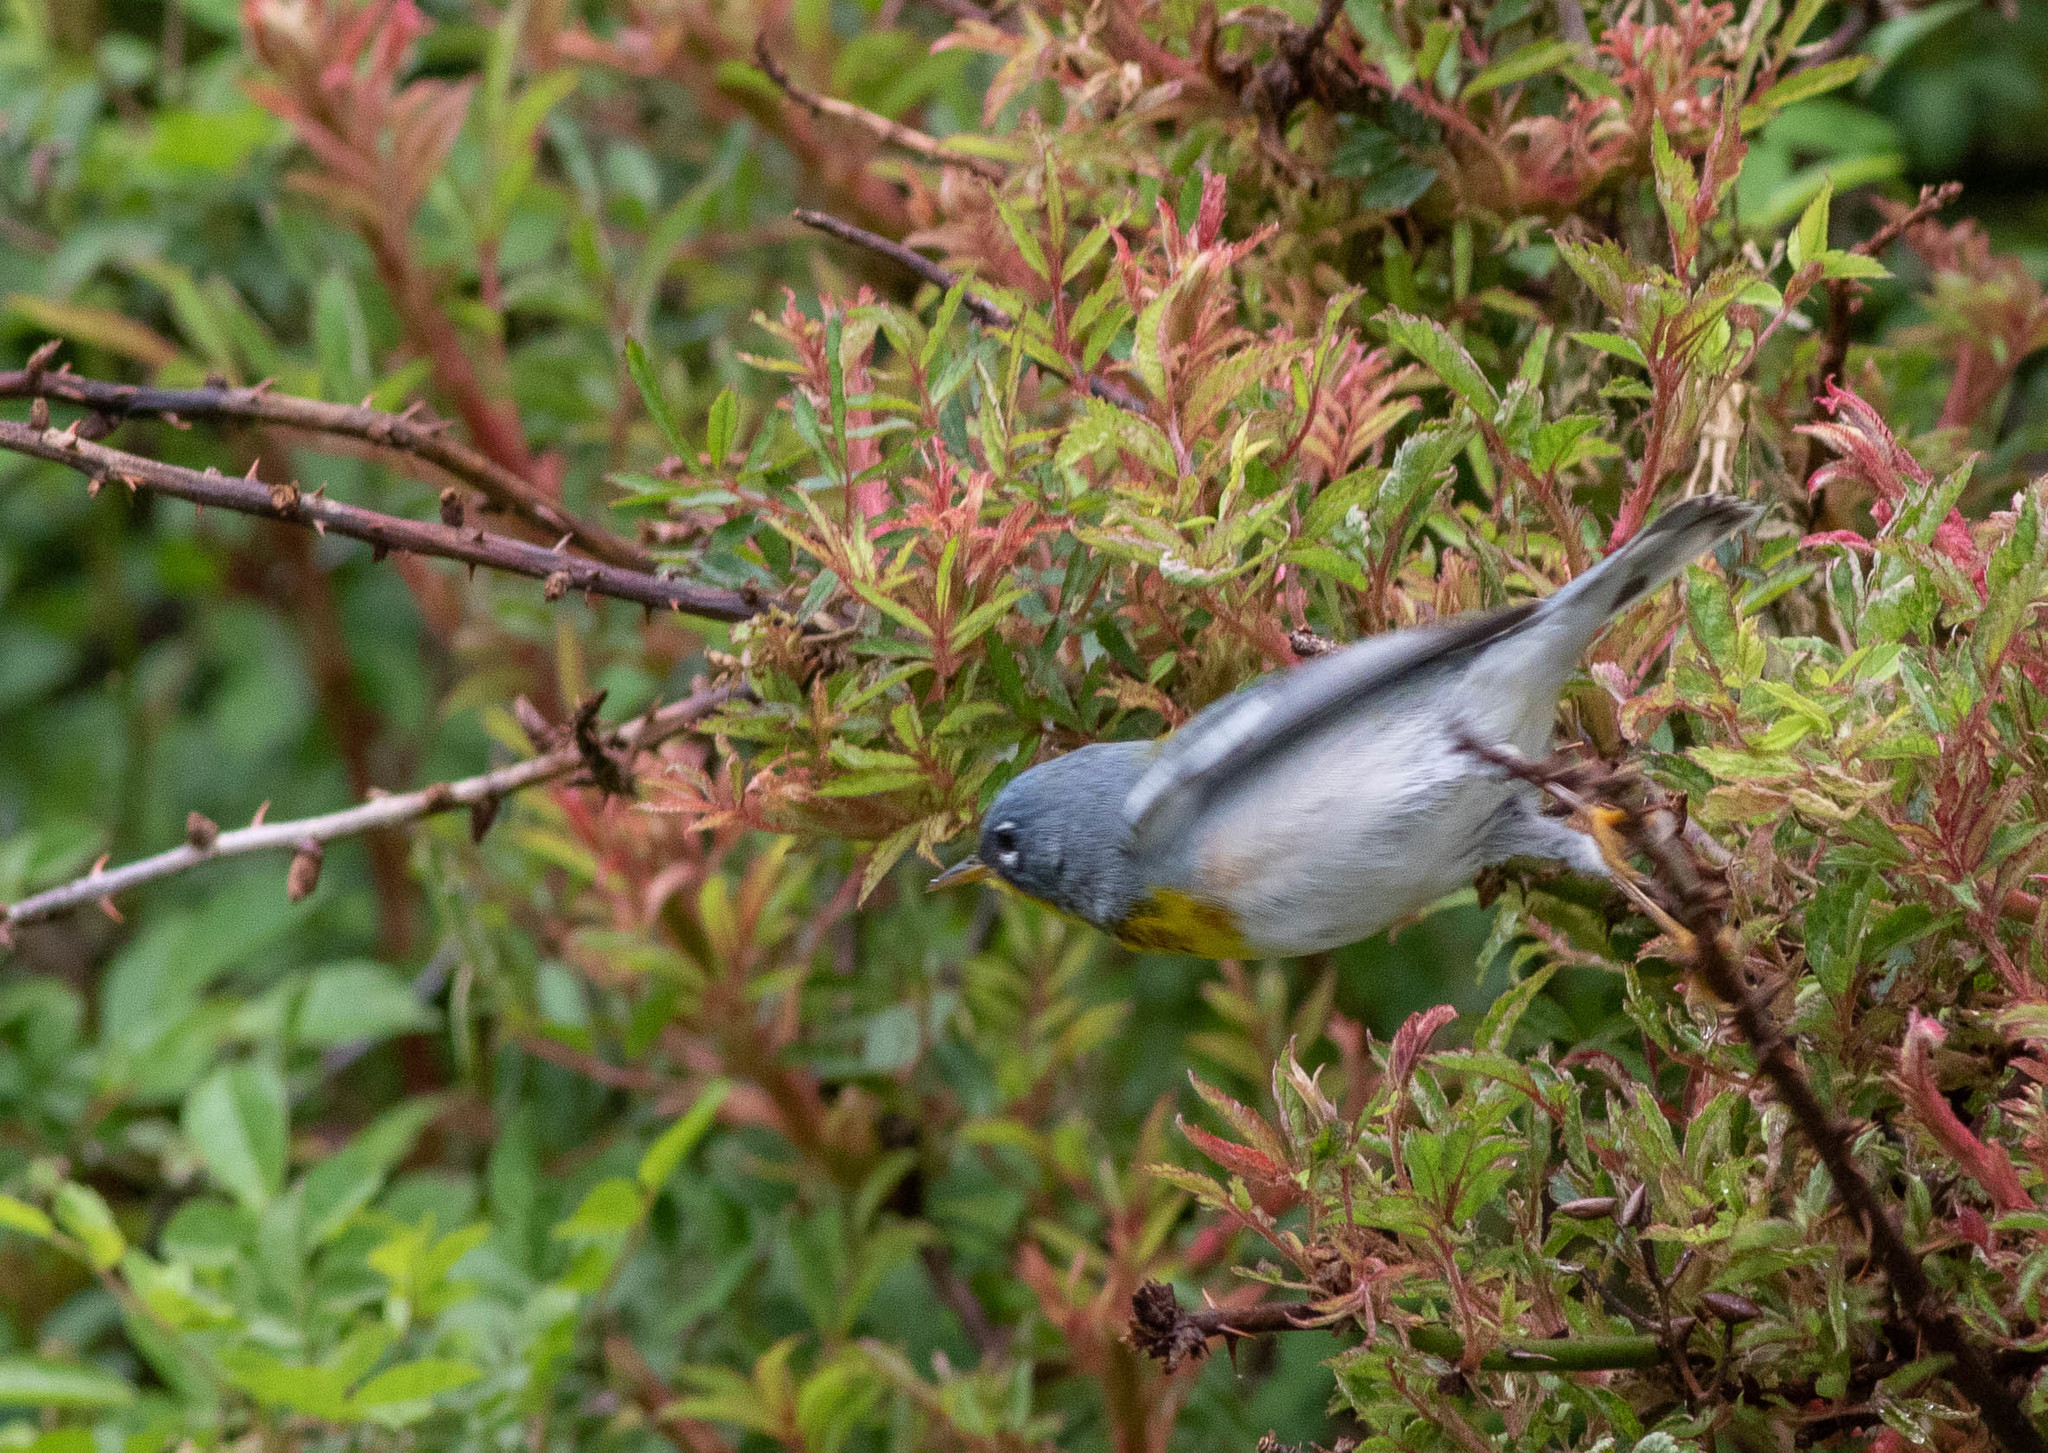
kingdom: Animalia
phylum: Chordata
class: Aves
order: Passeriformes
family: Parulidae
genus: Setophaga
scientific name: Setophaga americana
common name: Northern parula
